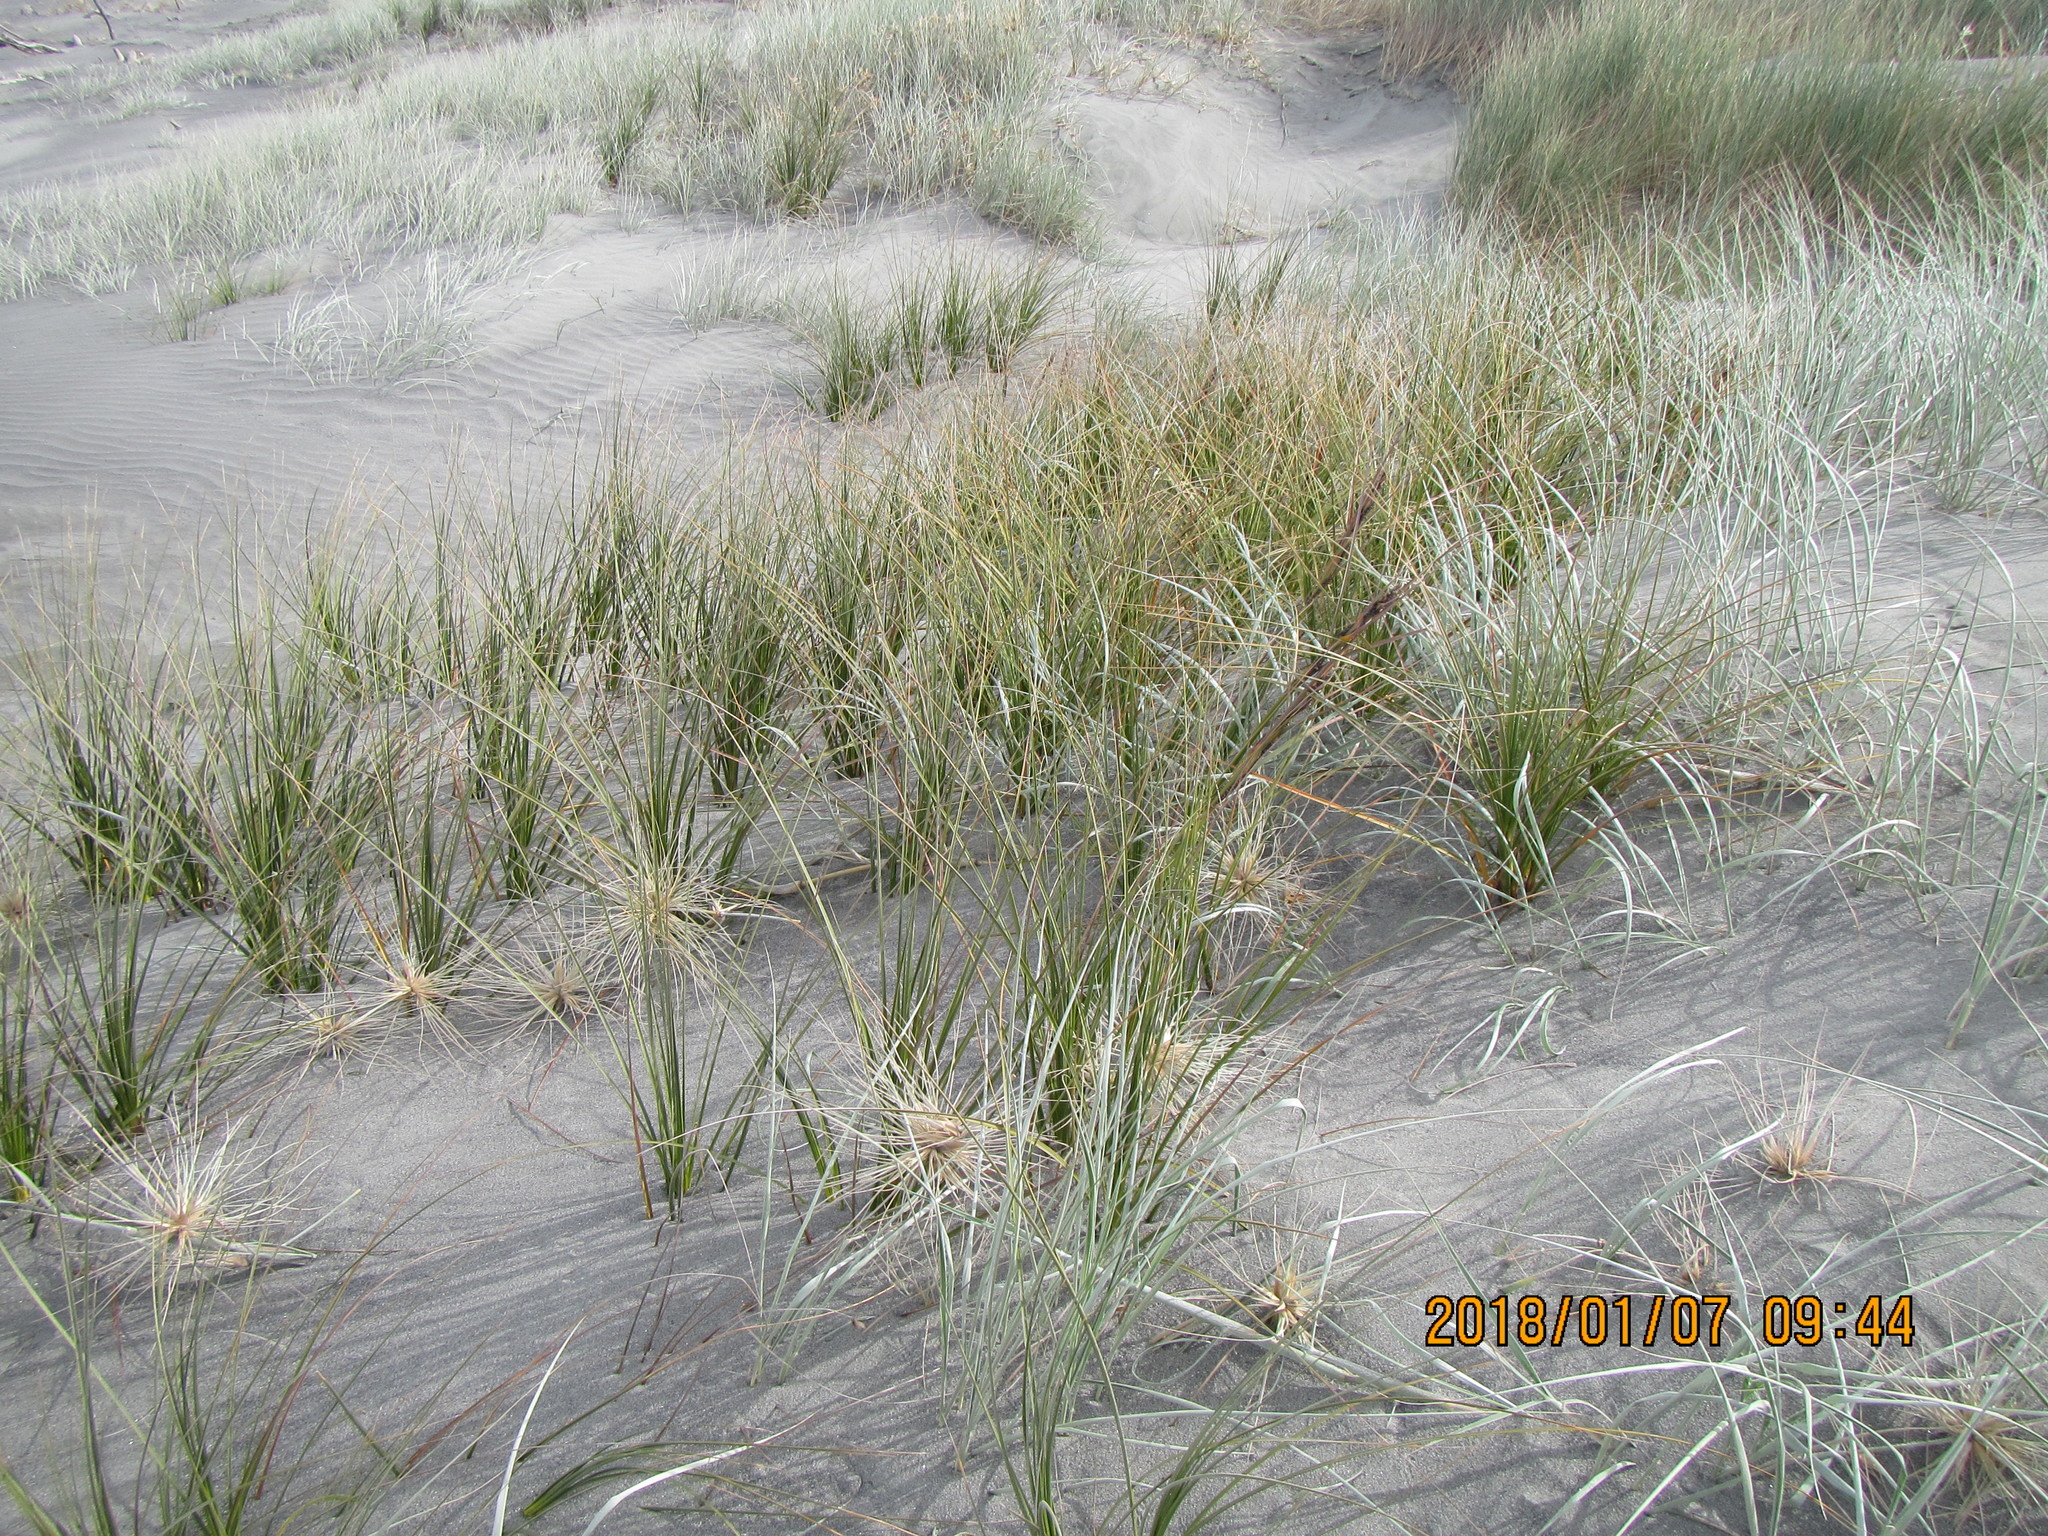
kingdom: Plantae
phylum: Tracheophyta
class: Liliopsida
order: Poales
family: Cyperaceae
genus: Ficinia
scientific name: Ficinia spiralis
